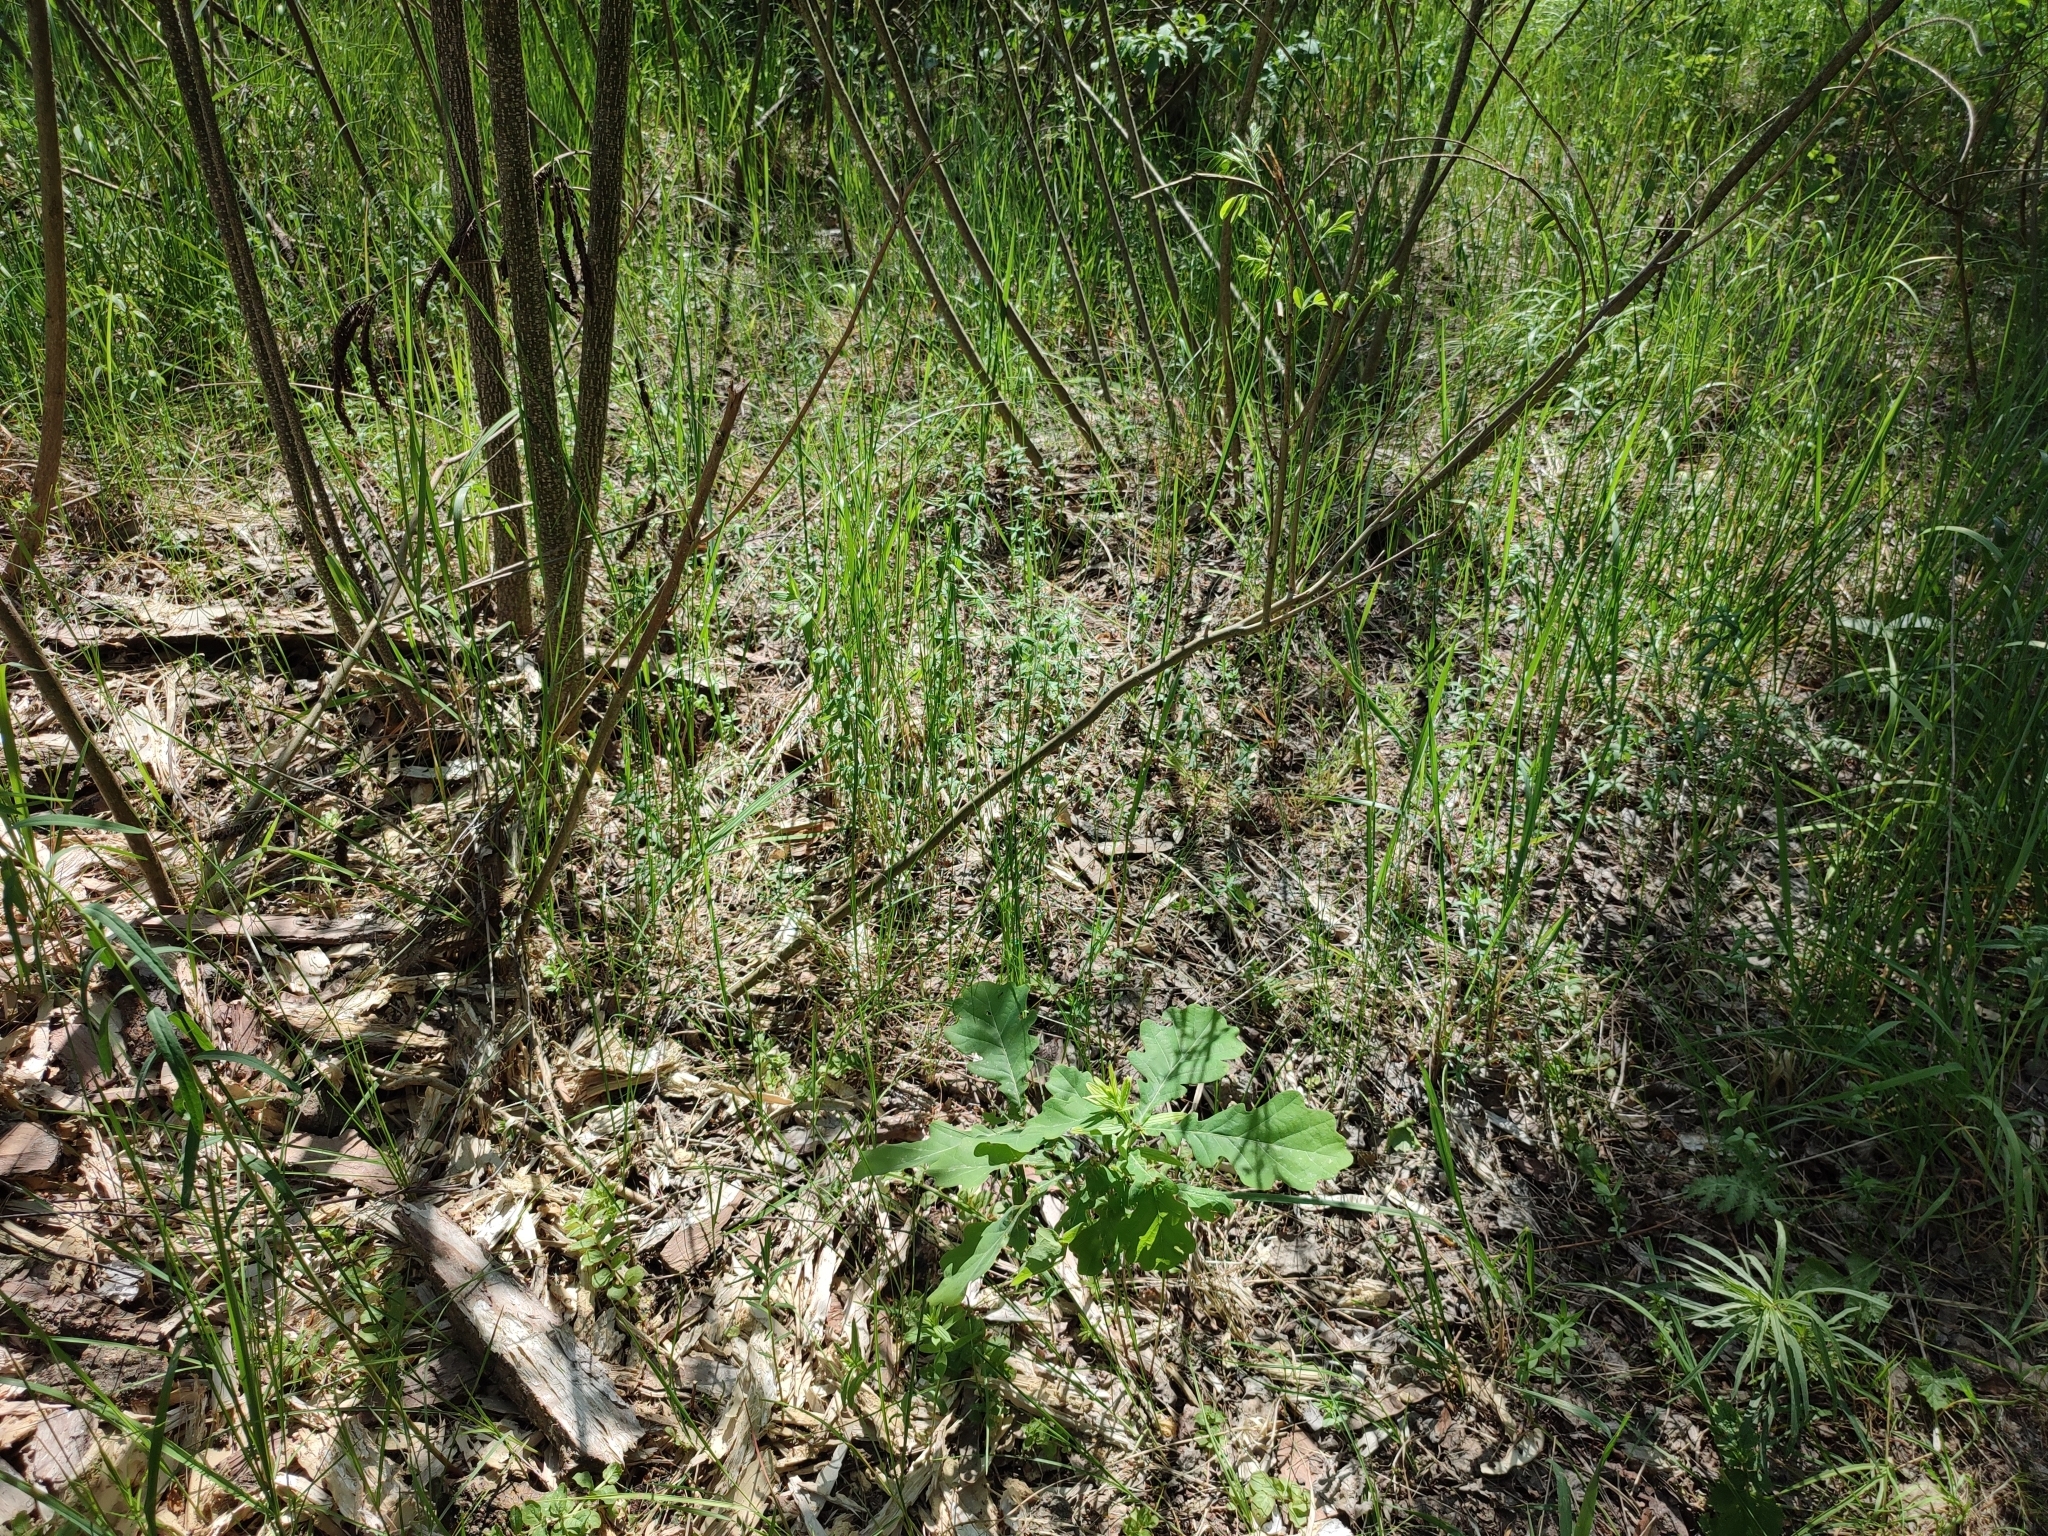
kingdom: Plantae
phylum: Tracheophyta
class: Magnoliopsida
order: Fagales
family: Fagaceae
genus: Quercus
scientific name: Quercus robur
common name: Pedunculate oak
